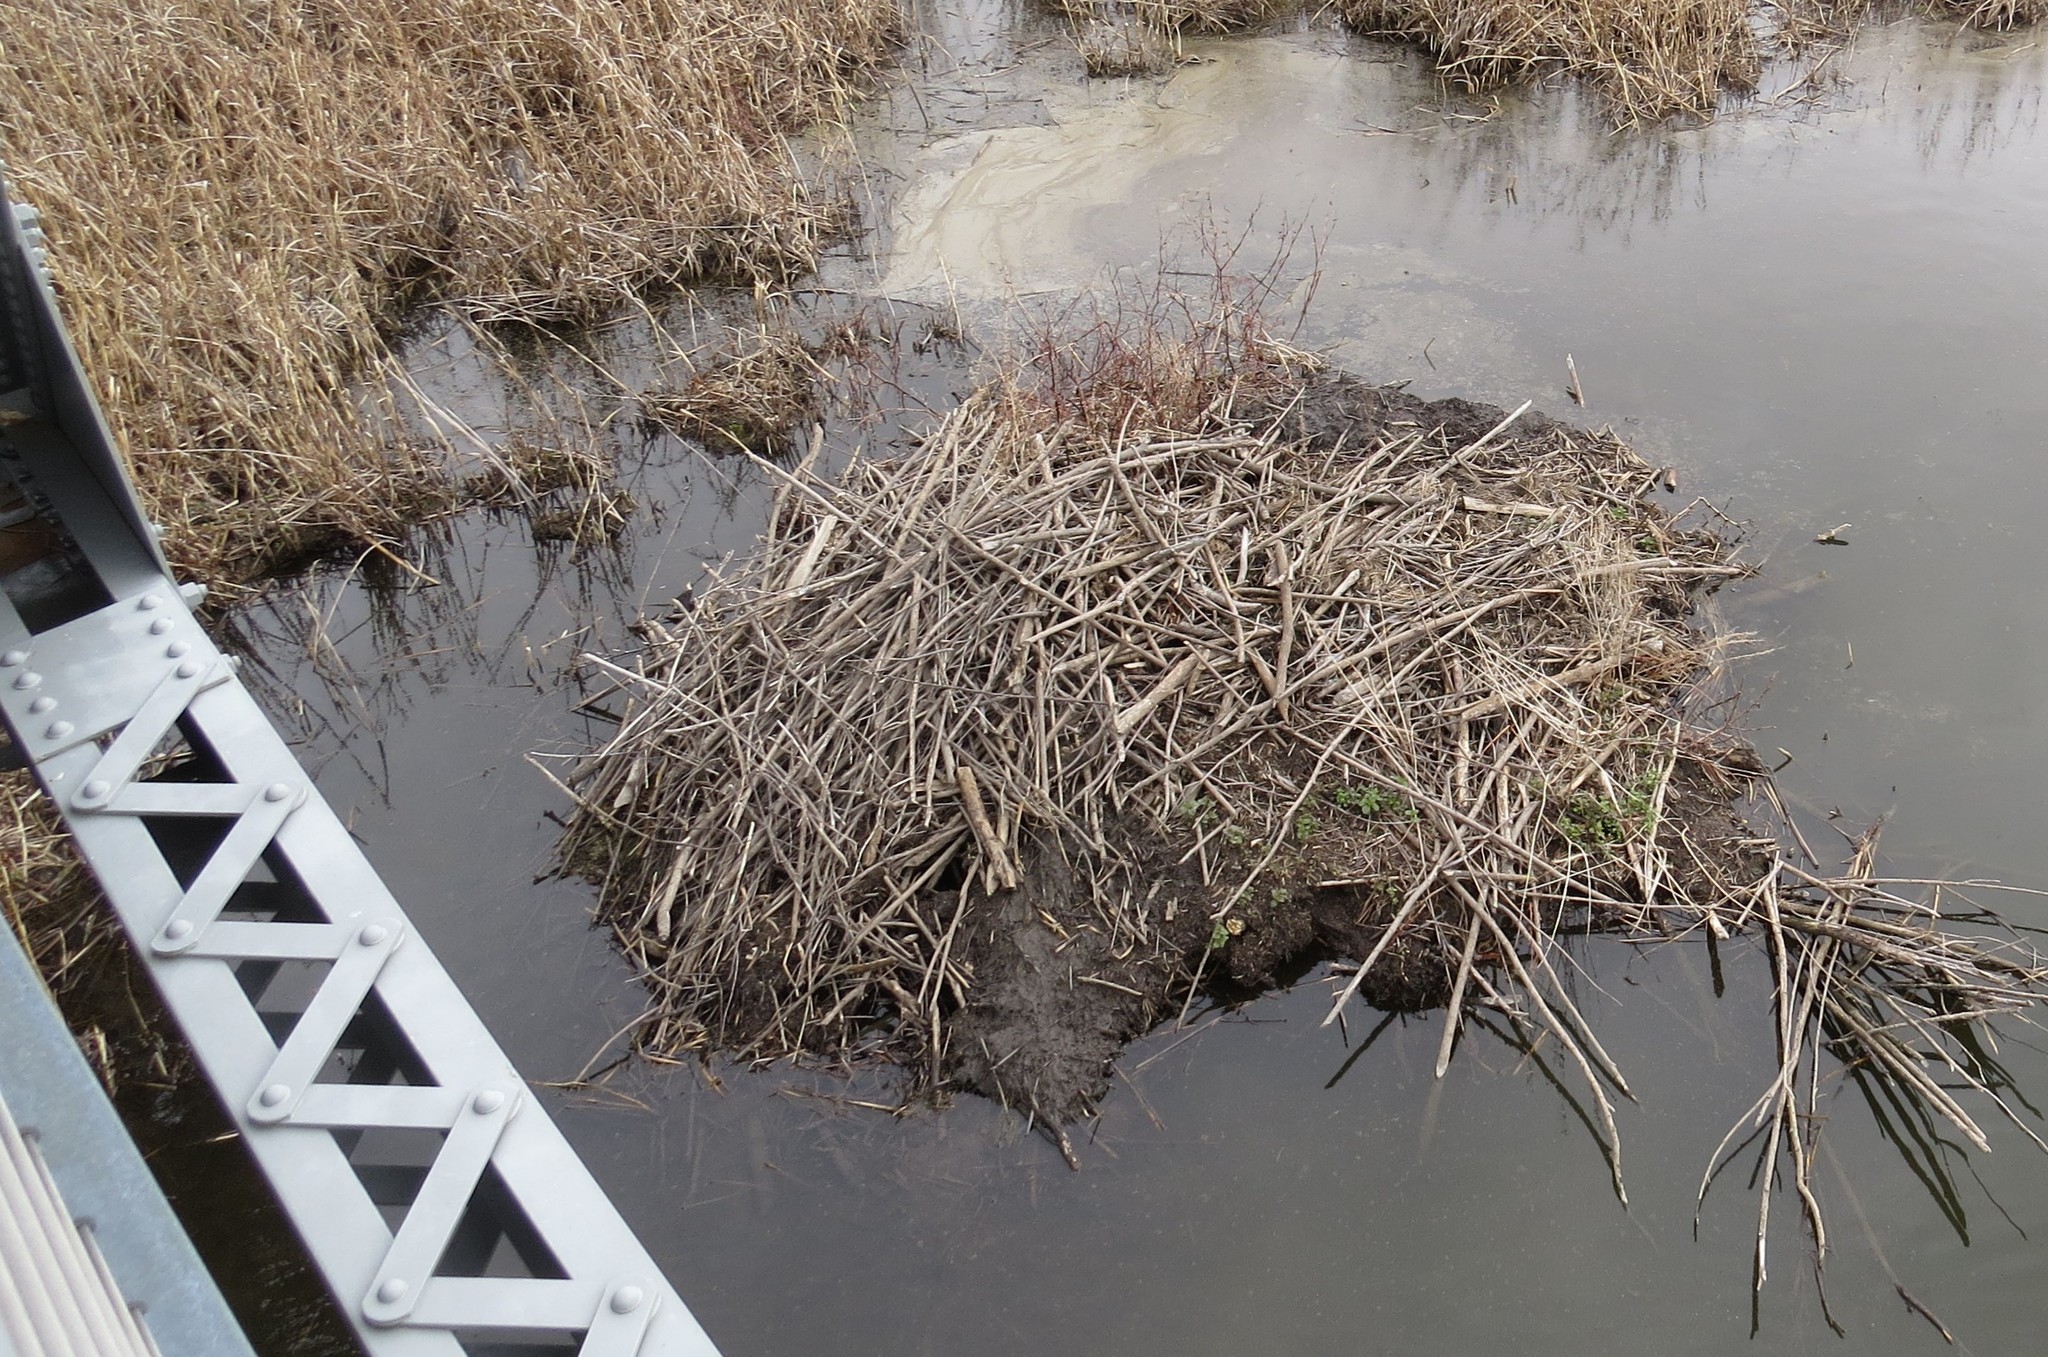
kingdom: Animalia
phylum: Chordata
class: Mammalia
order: Rodentia
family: Castoridae
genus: Castor
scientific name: Castor canadensis
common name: American beaver
